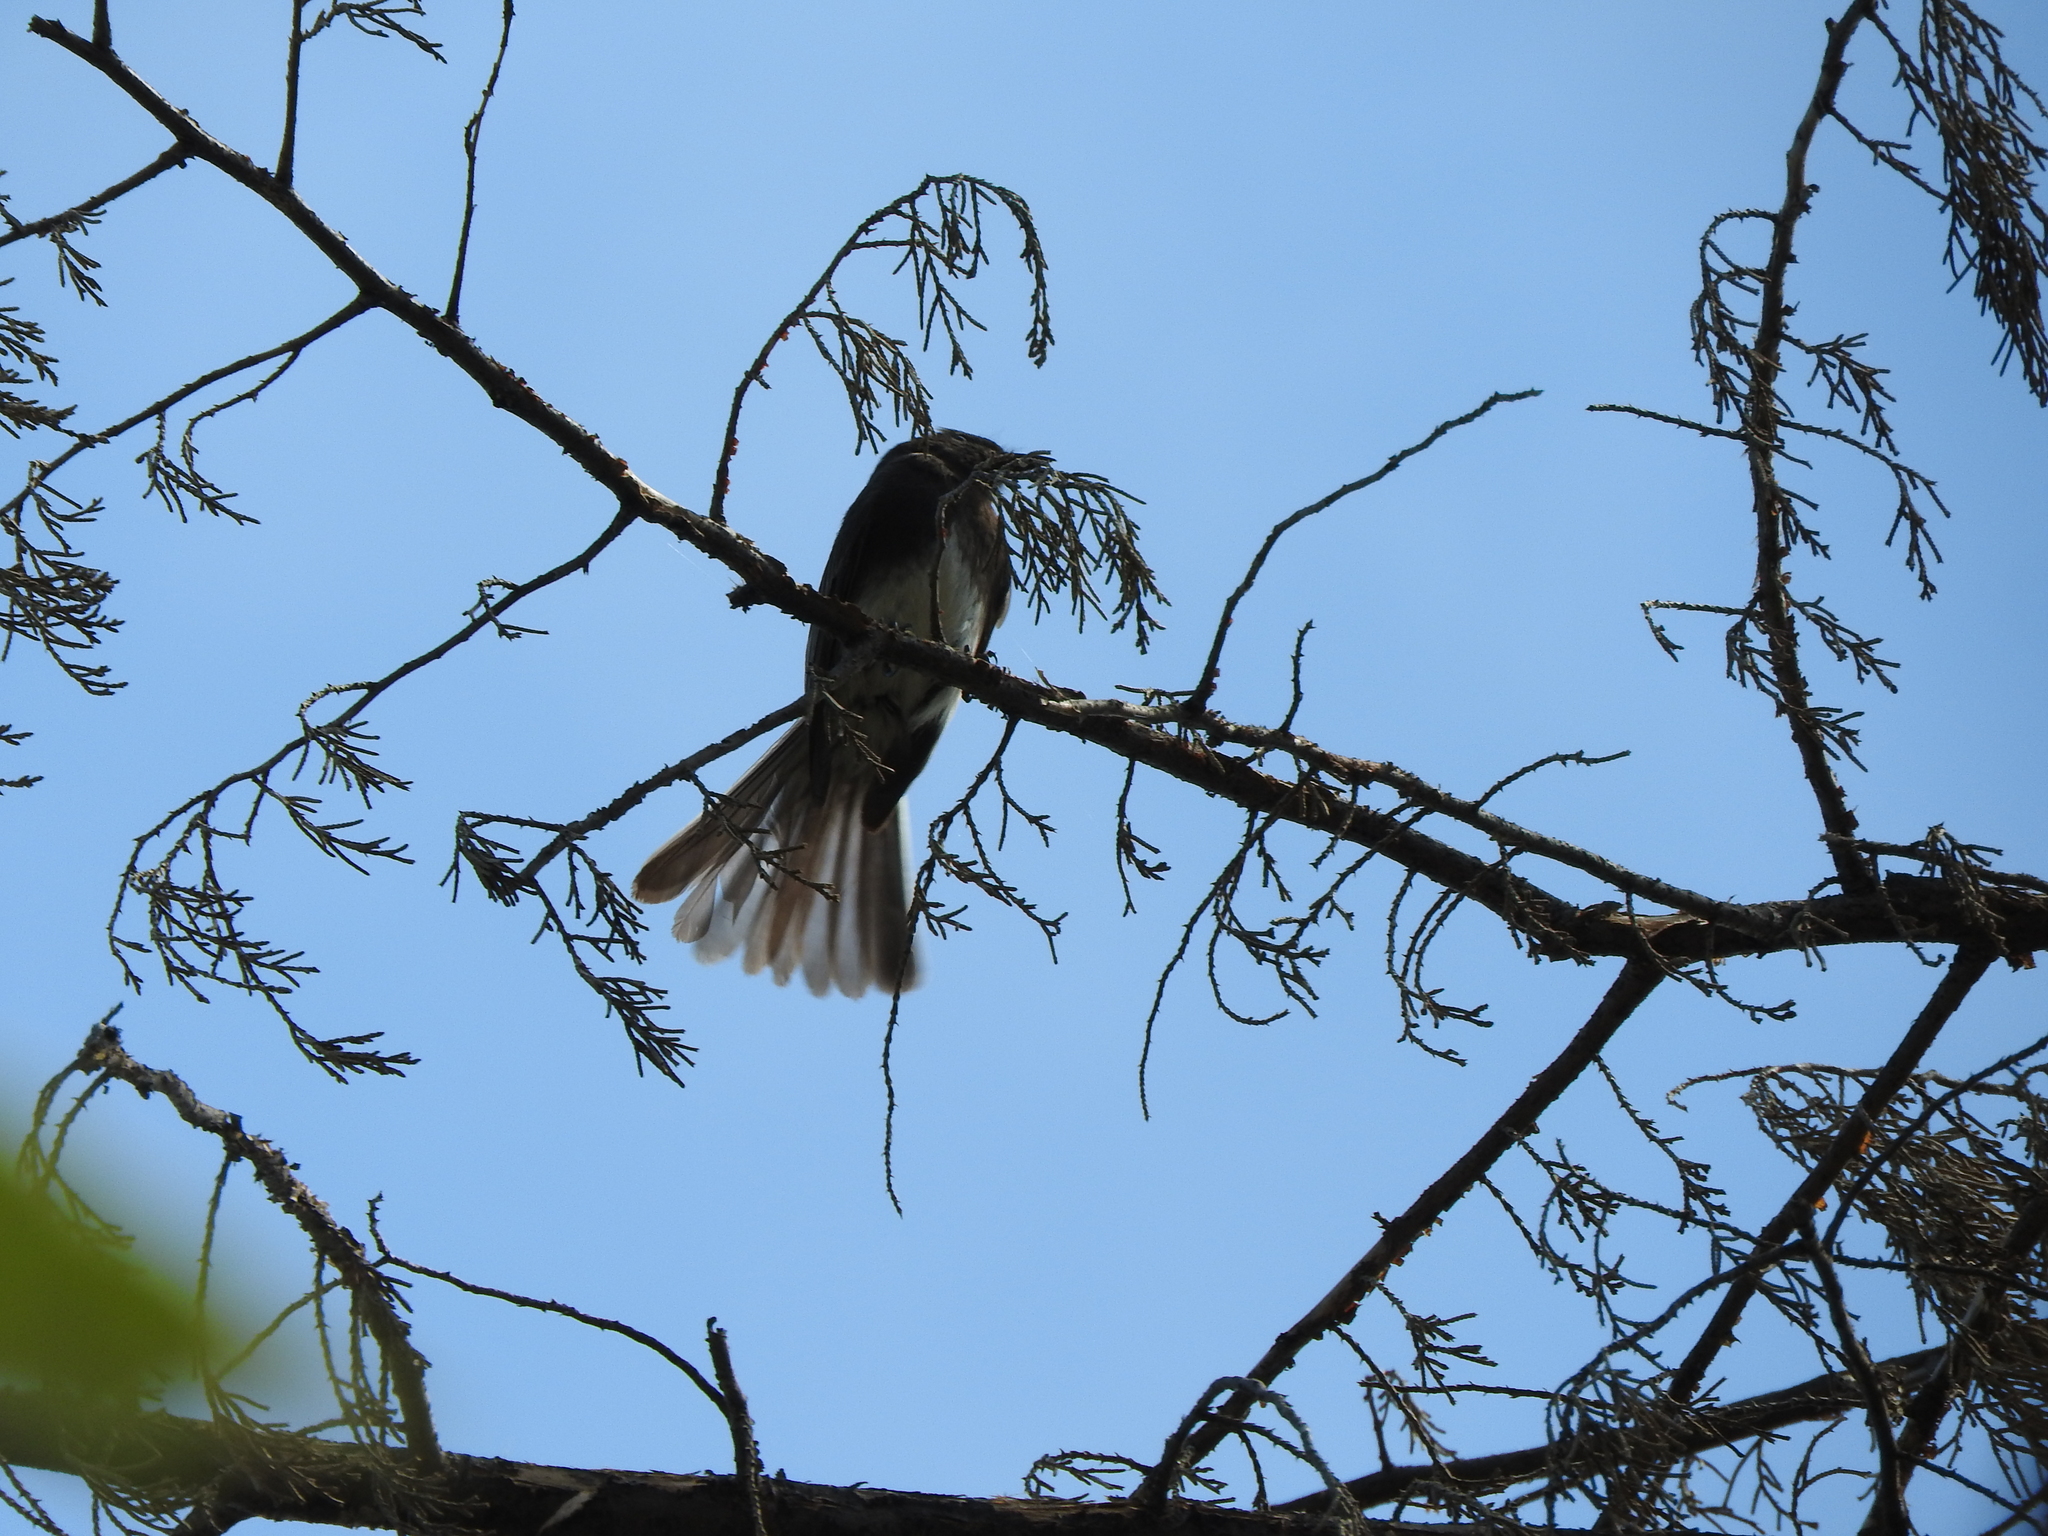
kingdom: Animalia
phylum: Chordata
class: Aves
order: Passeriformes
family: Tyrannidae
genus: Sayornis
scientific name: Sayornis nigricans
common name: Black phoebe
